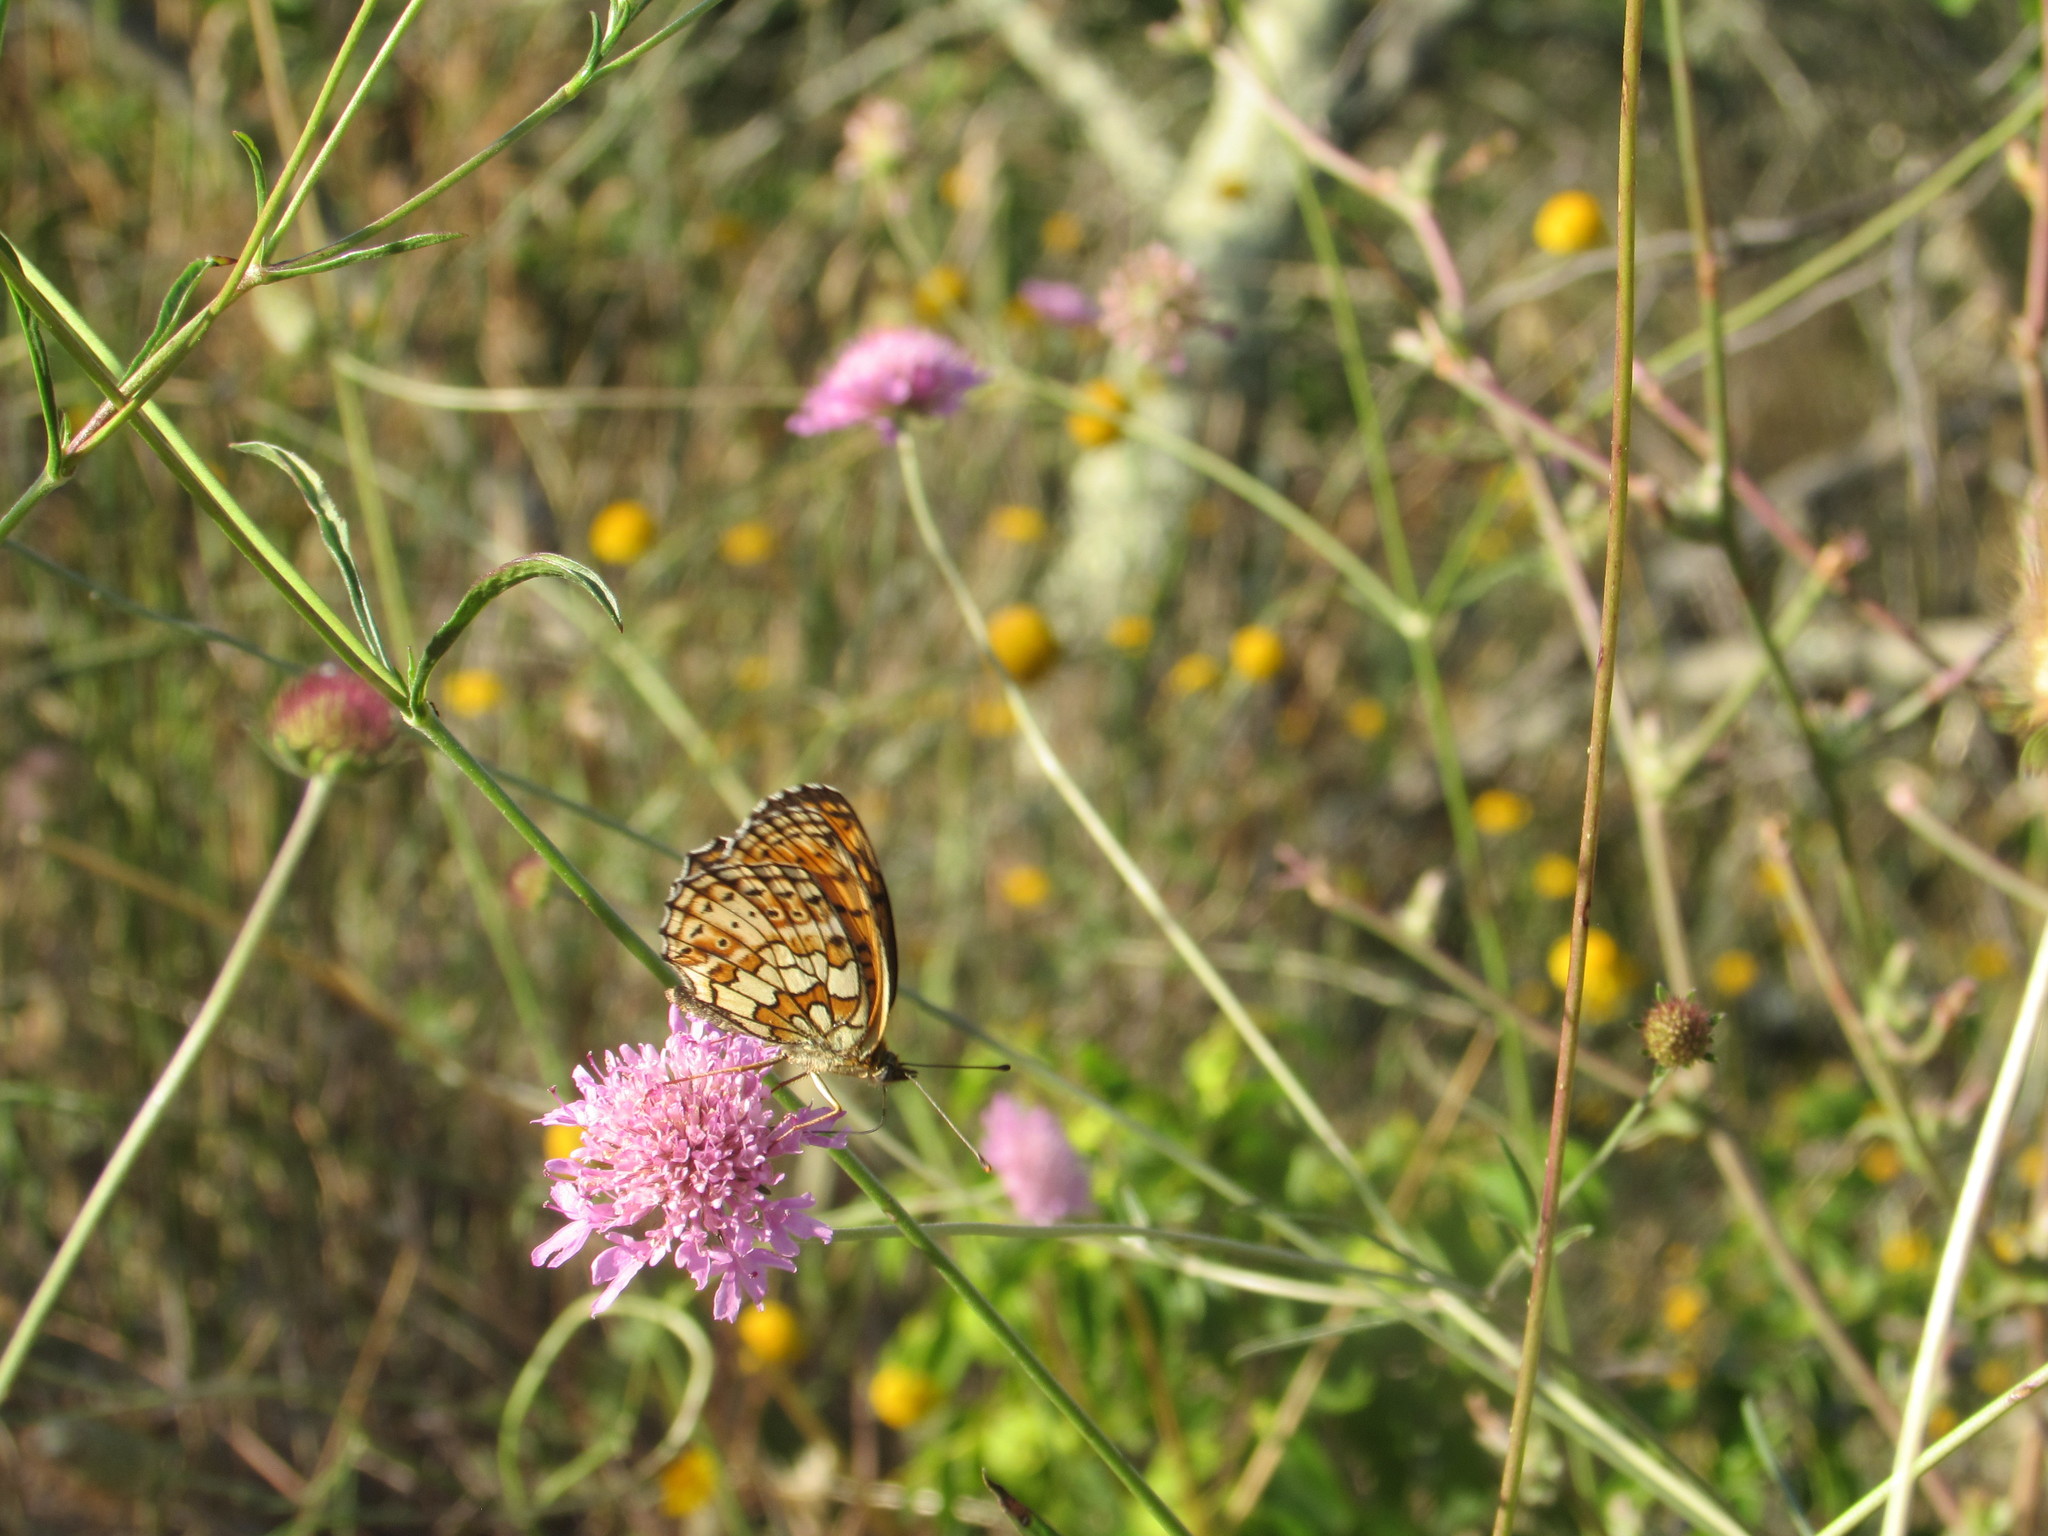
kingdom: Animalia
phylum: Arthropoda
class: Insecta
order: Lepidoptera
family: Nymphalidae
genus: Brenthis
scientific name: Brenthis hecate
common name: Twin-spot fritillary
